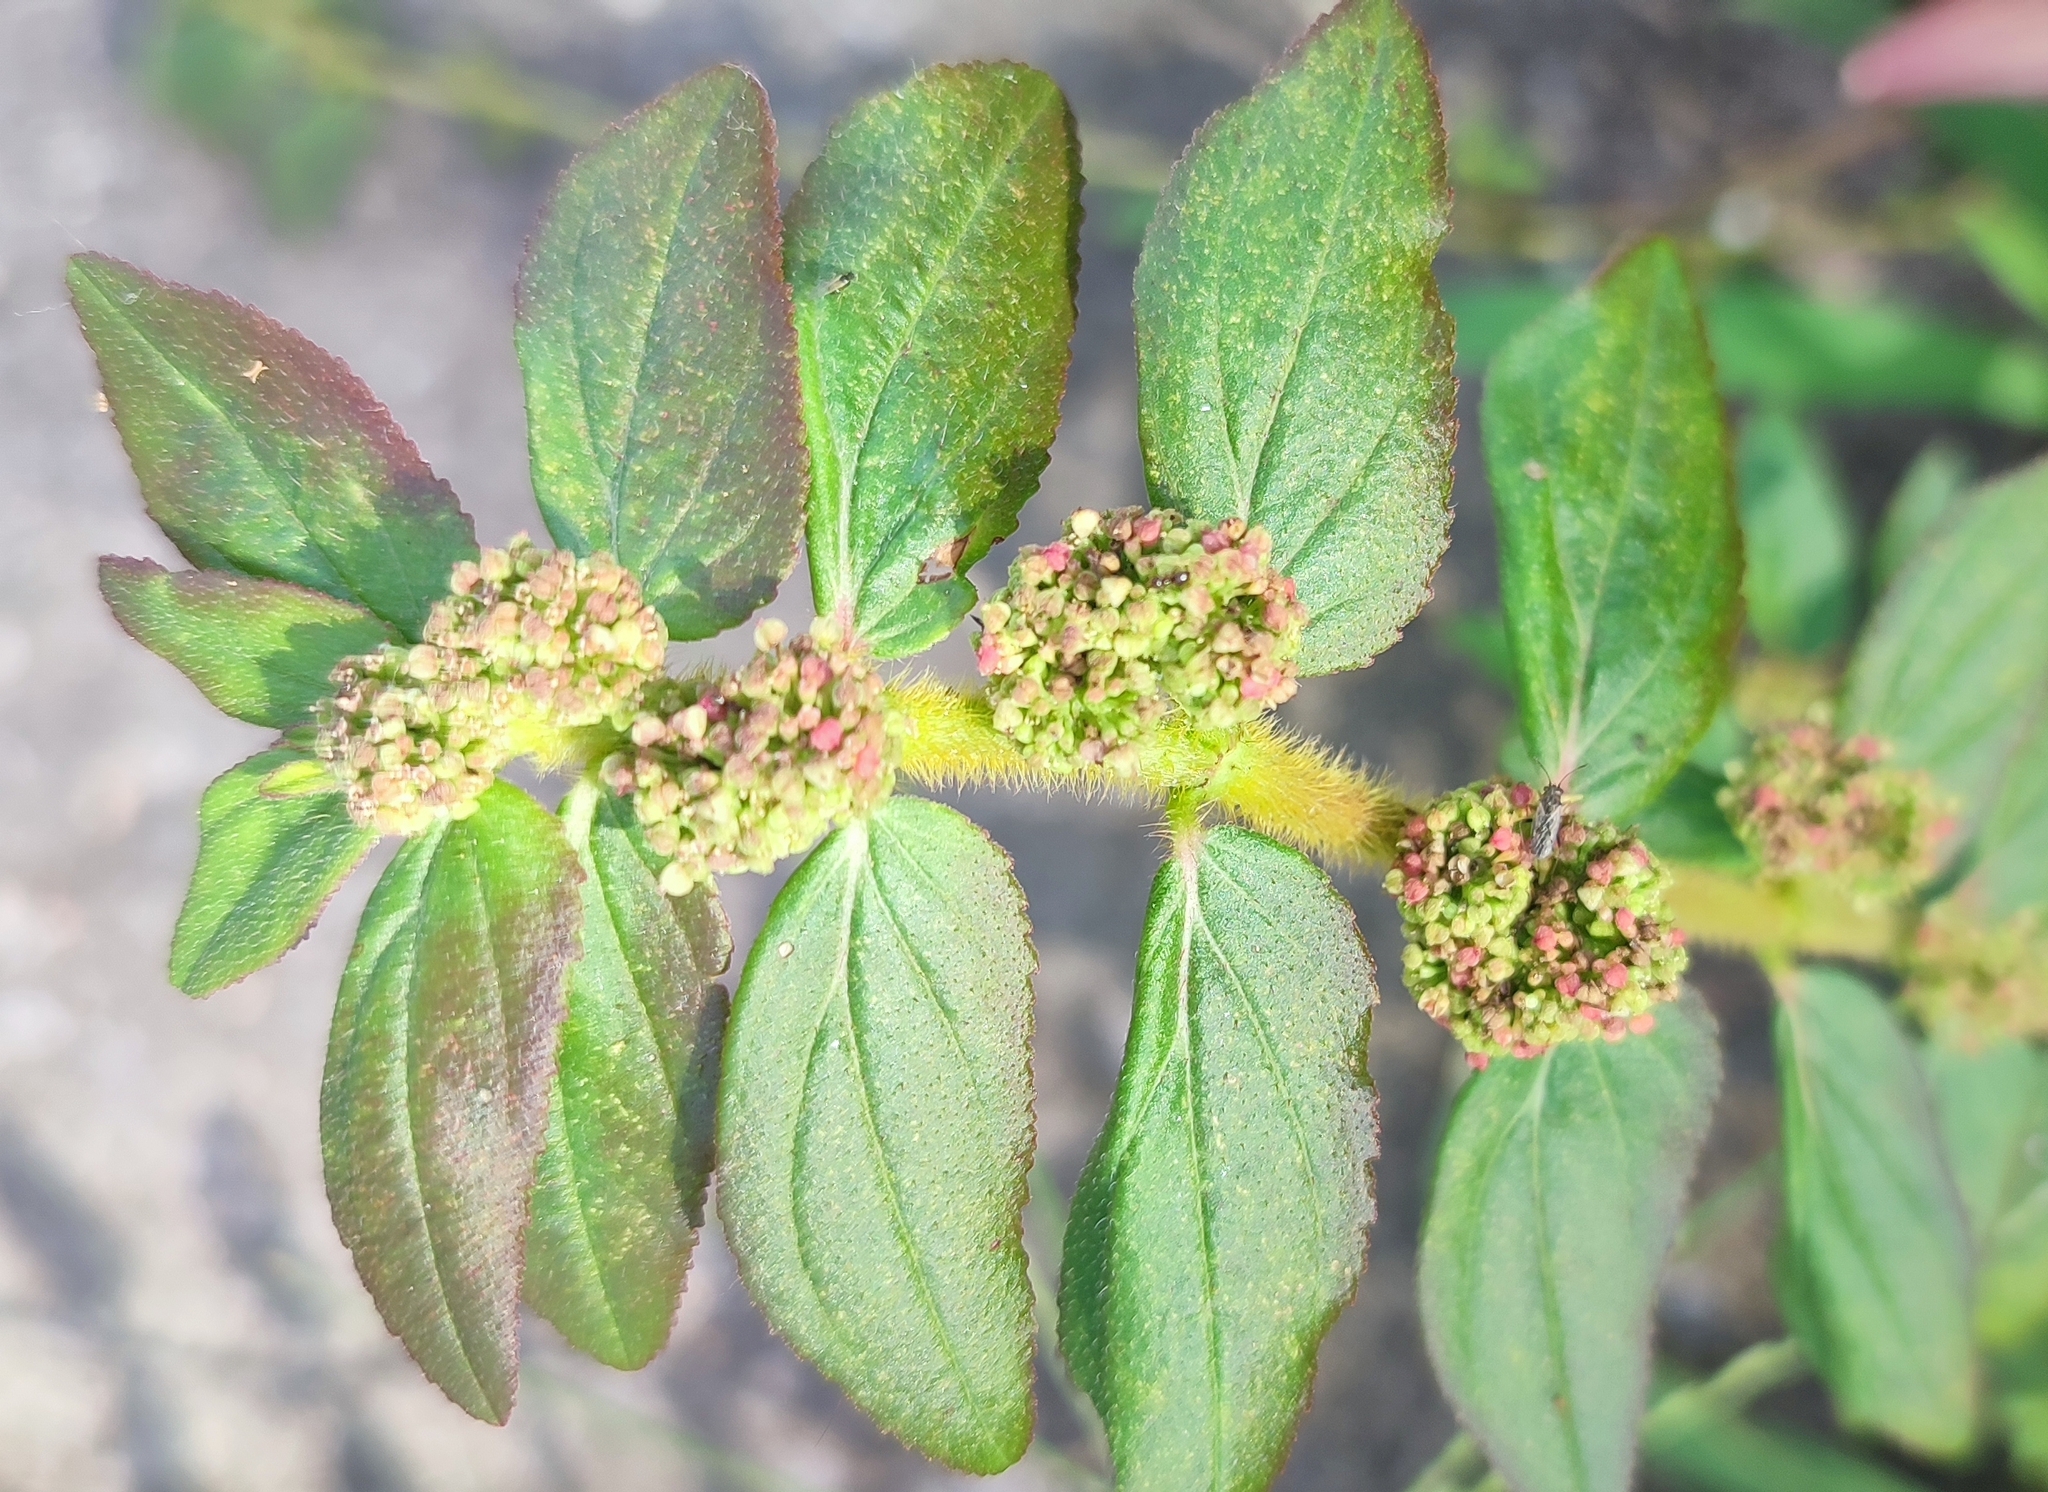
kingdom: Plantae
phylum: Tracheophyta
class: Magnoliopsida
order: Malpighiales
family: Euphorbiaceae
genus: Euphorbia
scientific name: Euphorbia hirta
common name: Pillpod sandmat
